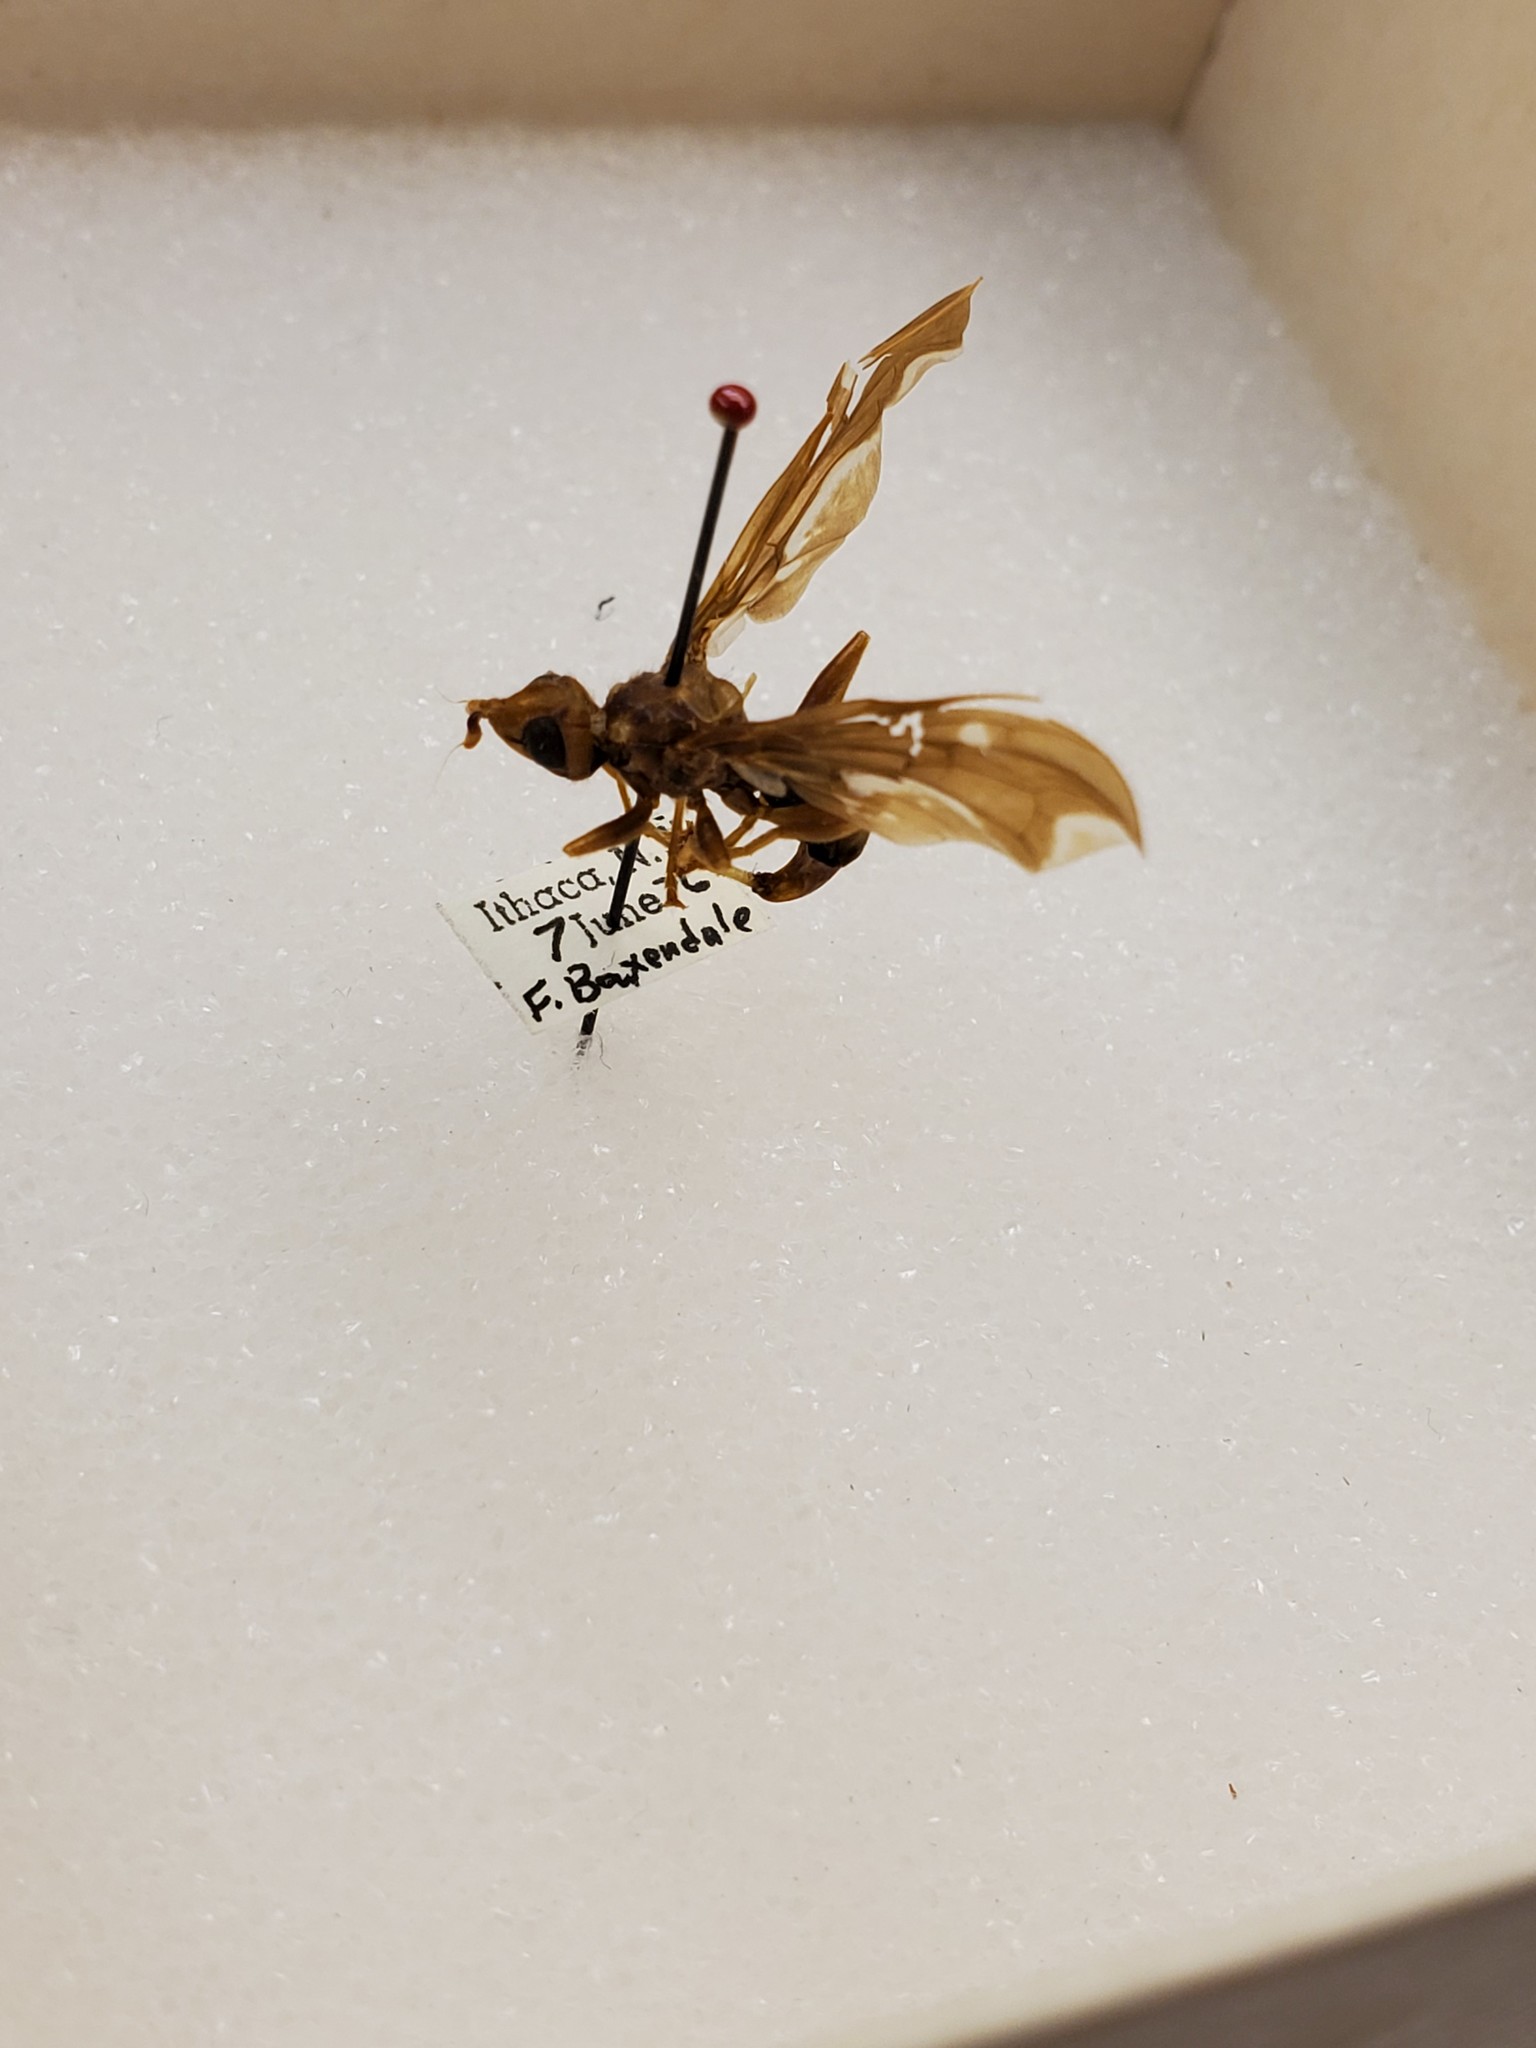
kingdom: Animalia
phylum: Arthropoda
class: Insecta
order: Diptera
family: Pyrgotidae
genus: Pyrgota
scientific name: Pyrgota undata
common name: Waved light fly
